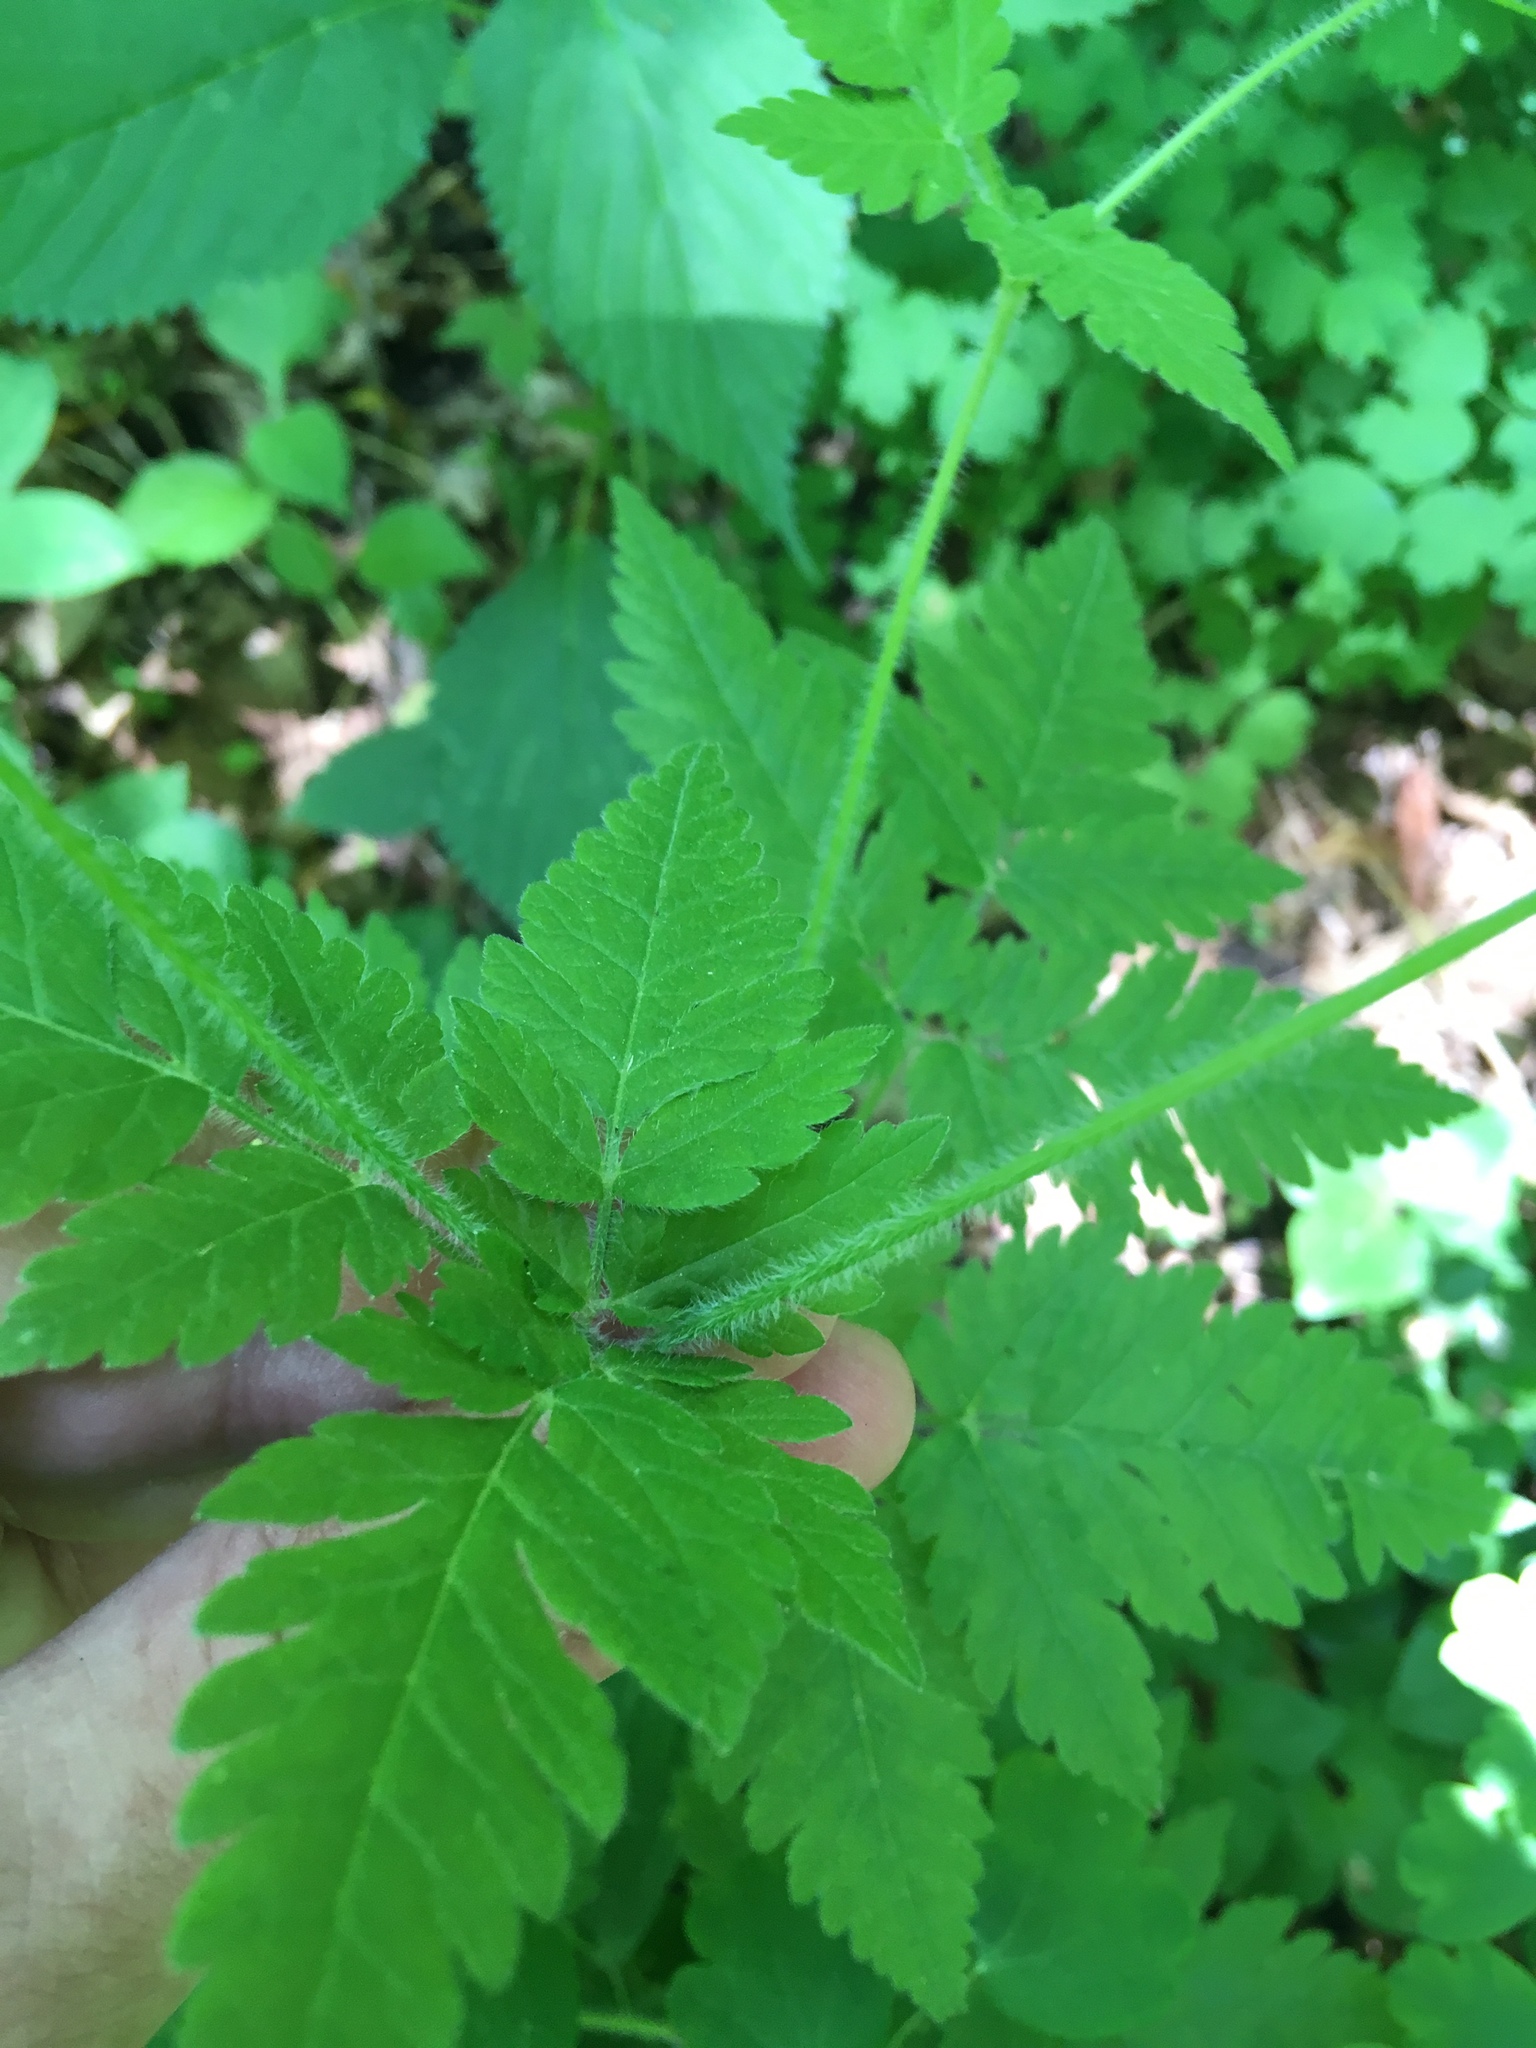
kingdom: Plantae
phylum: Tracheophyta
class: Magnoliopsida
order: Apiales
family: Apiaceae
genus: Osmorhiza
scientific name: Osmorhiza claytonii
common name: Hairy sweet cicely
